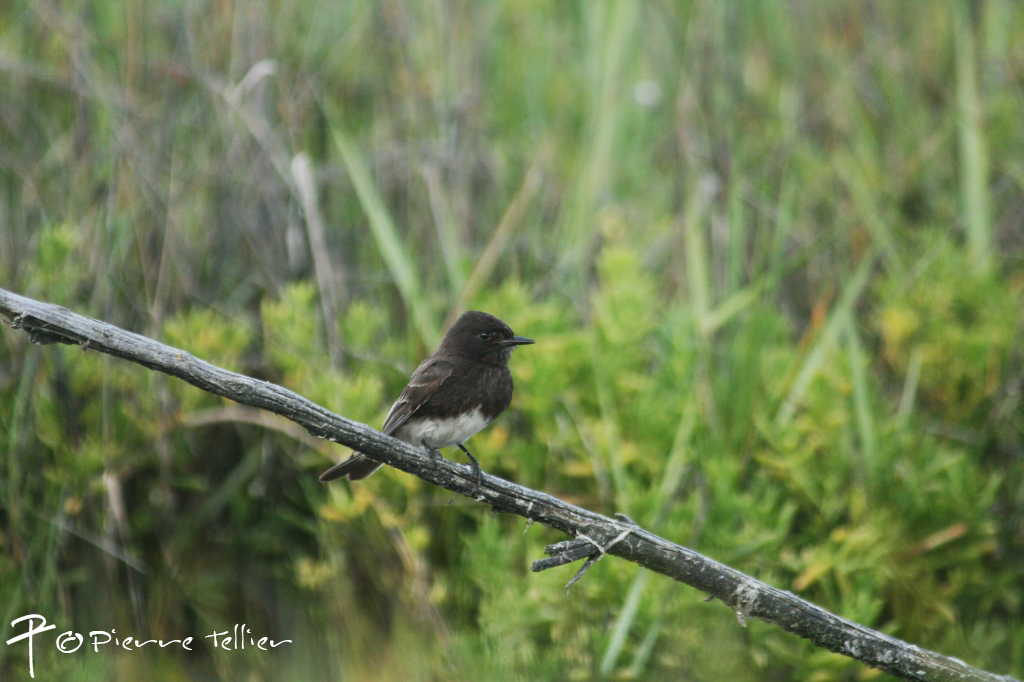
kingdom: Animalia
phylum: Chordata
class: Aves
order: Passeriformes
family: Tyrannidae
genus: Sayornis
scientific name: Sayornis nigricans
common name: Black phoebe
